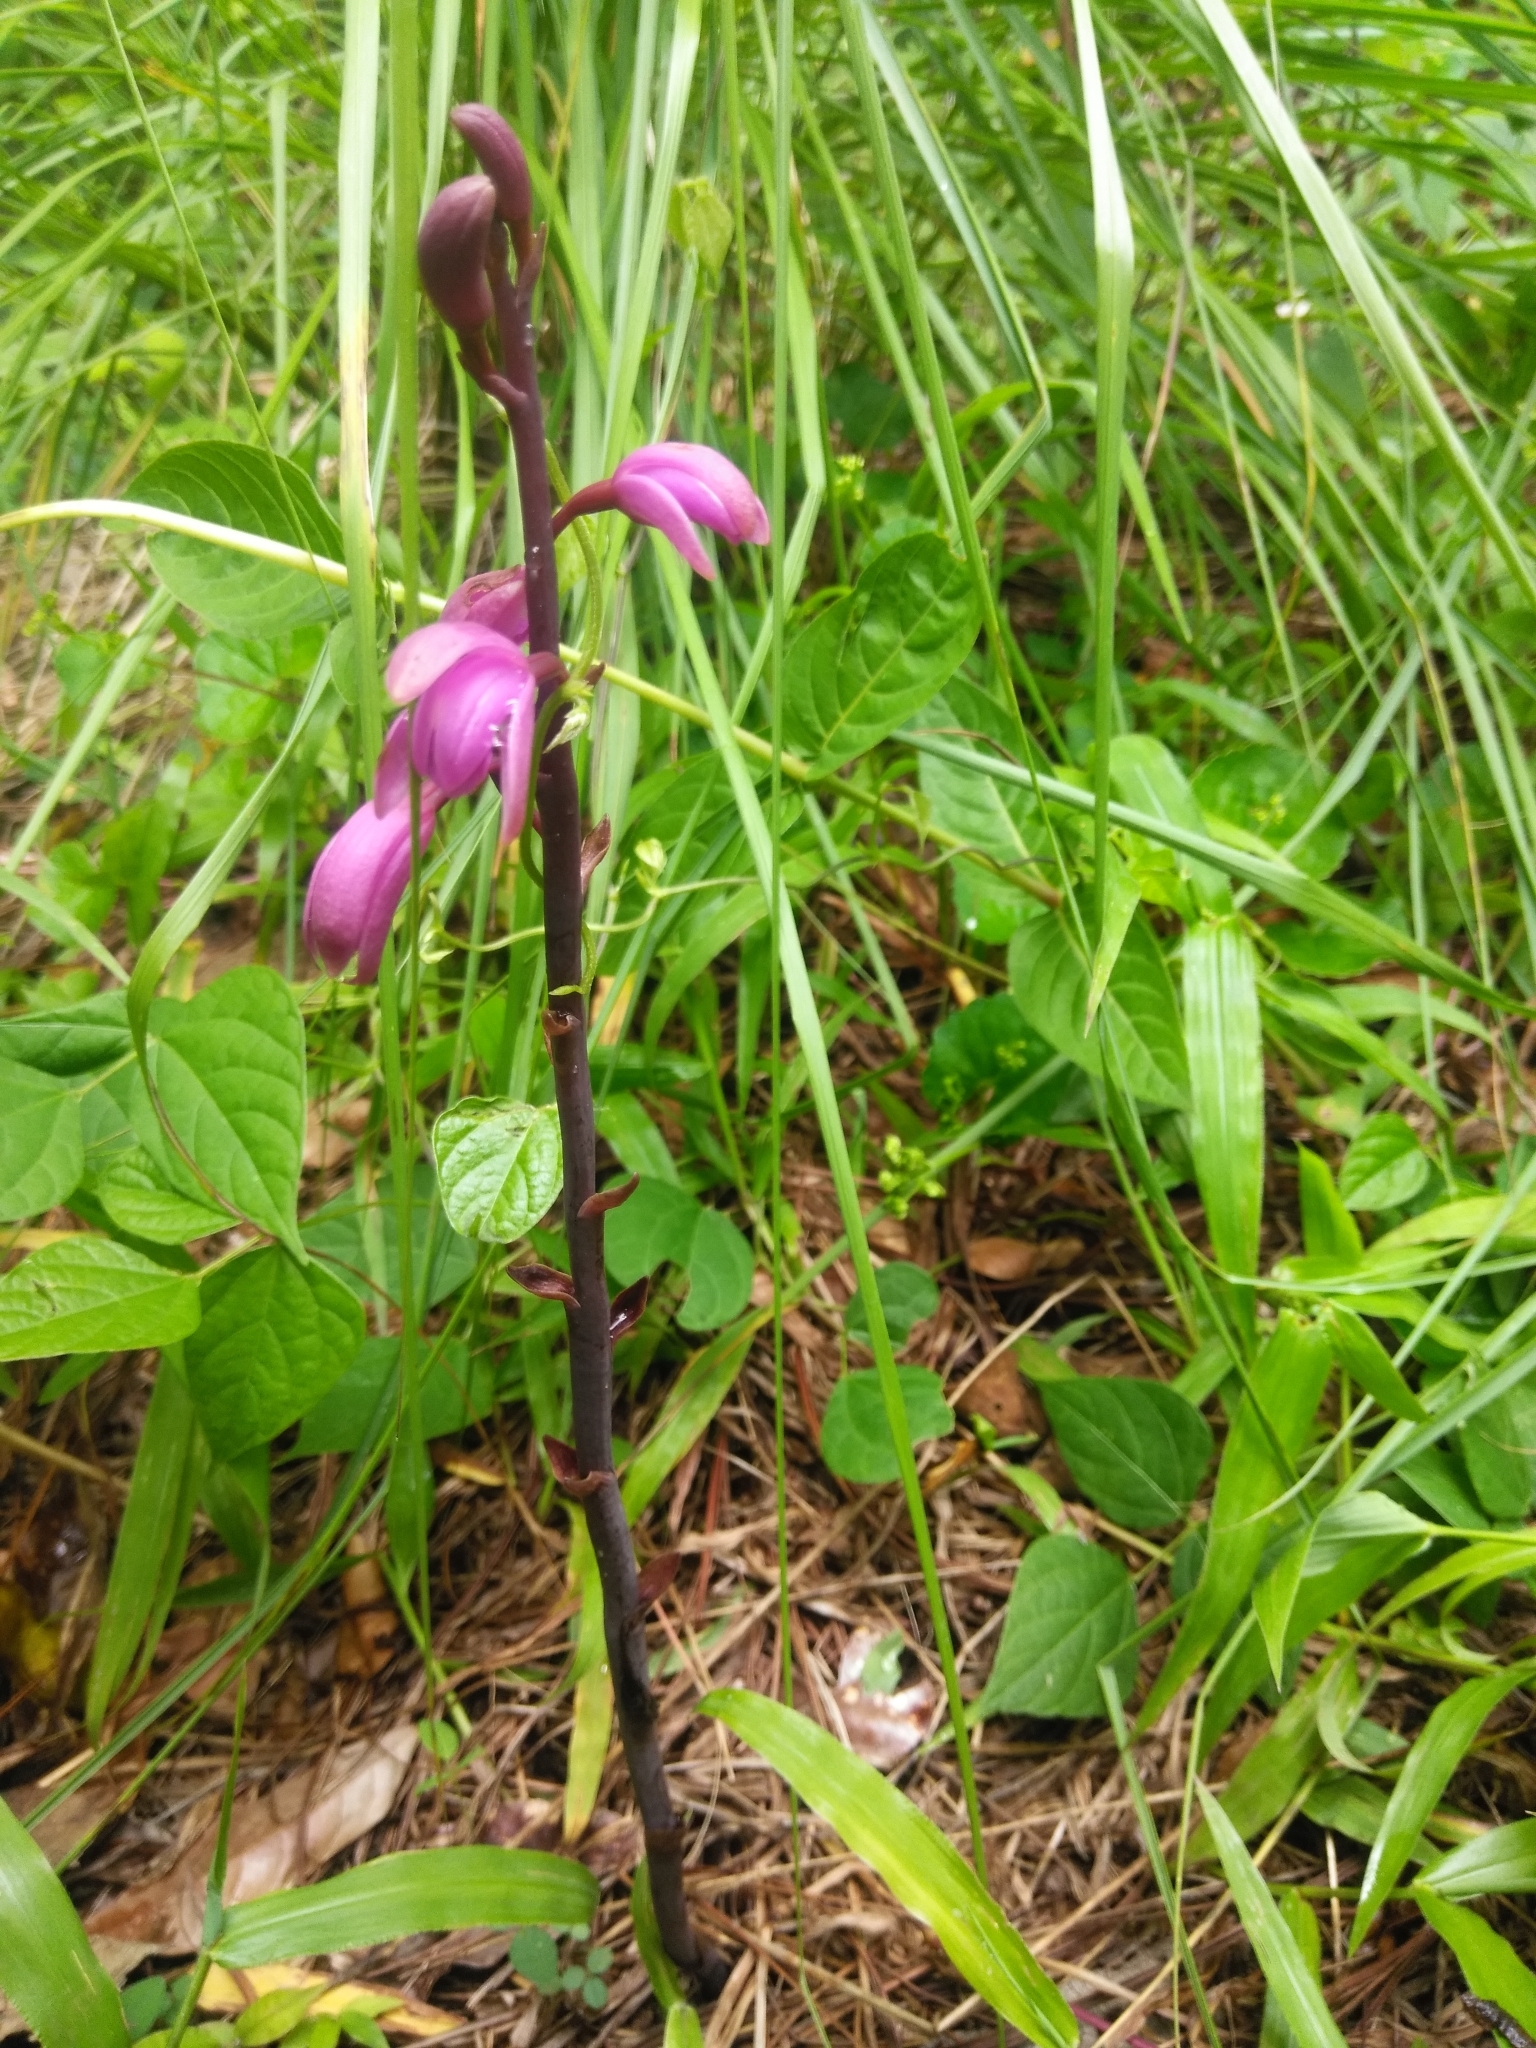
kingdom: Plantae
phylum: Tracheophyta
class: Liliopsida
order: Asparagales
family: Orchidaceae
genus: Bletia
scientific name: Bletia mexicana
